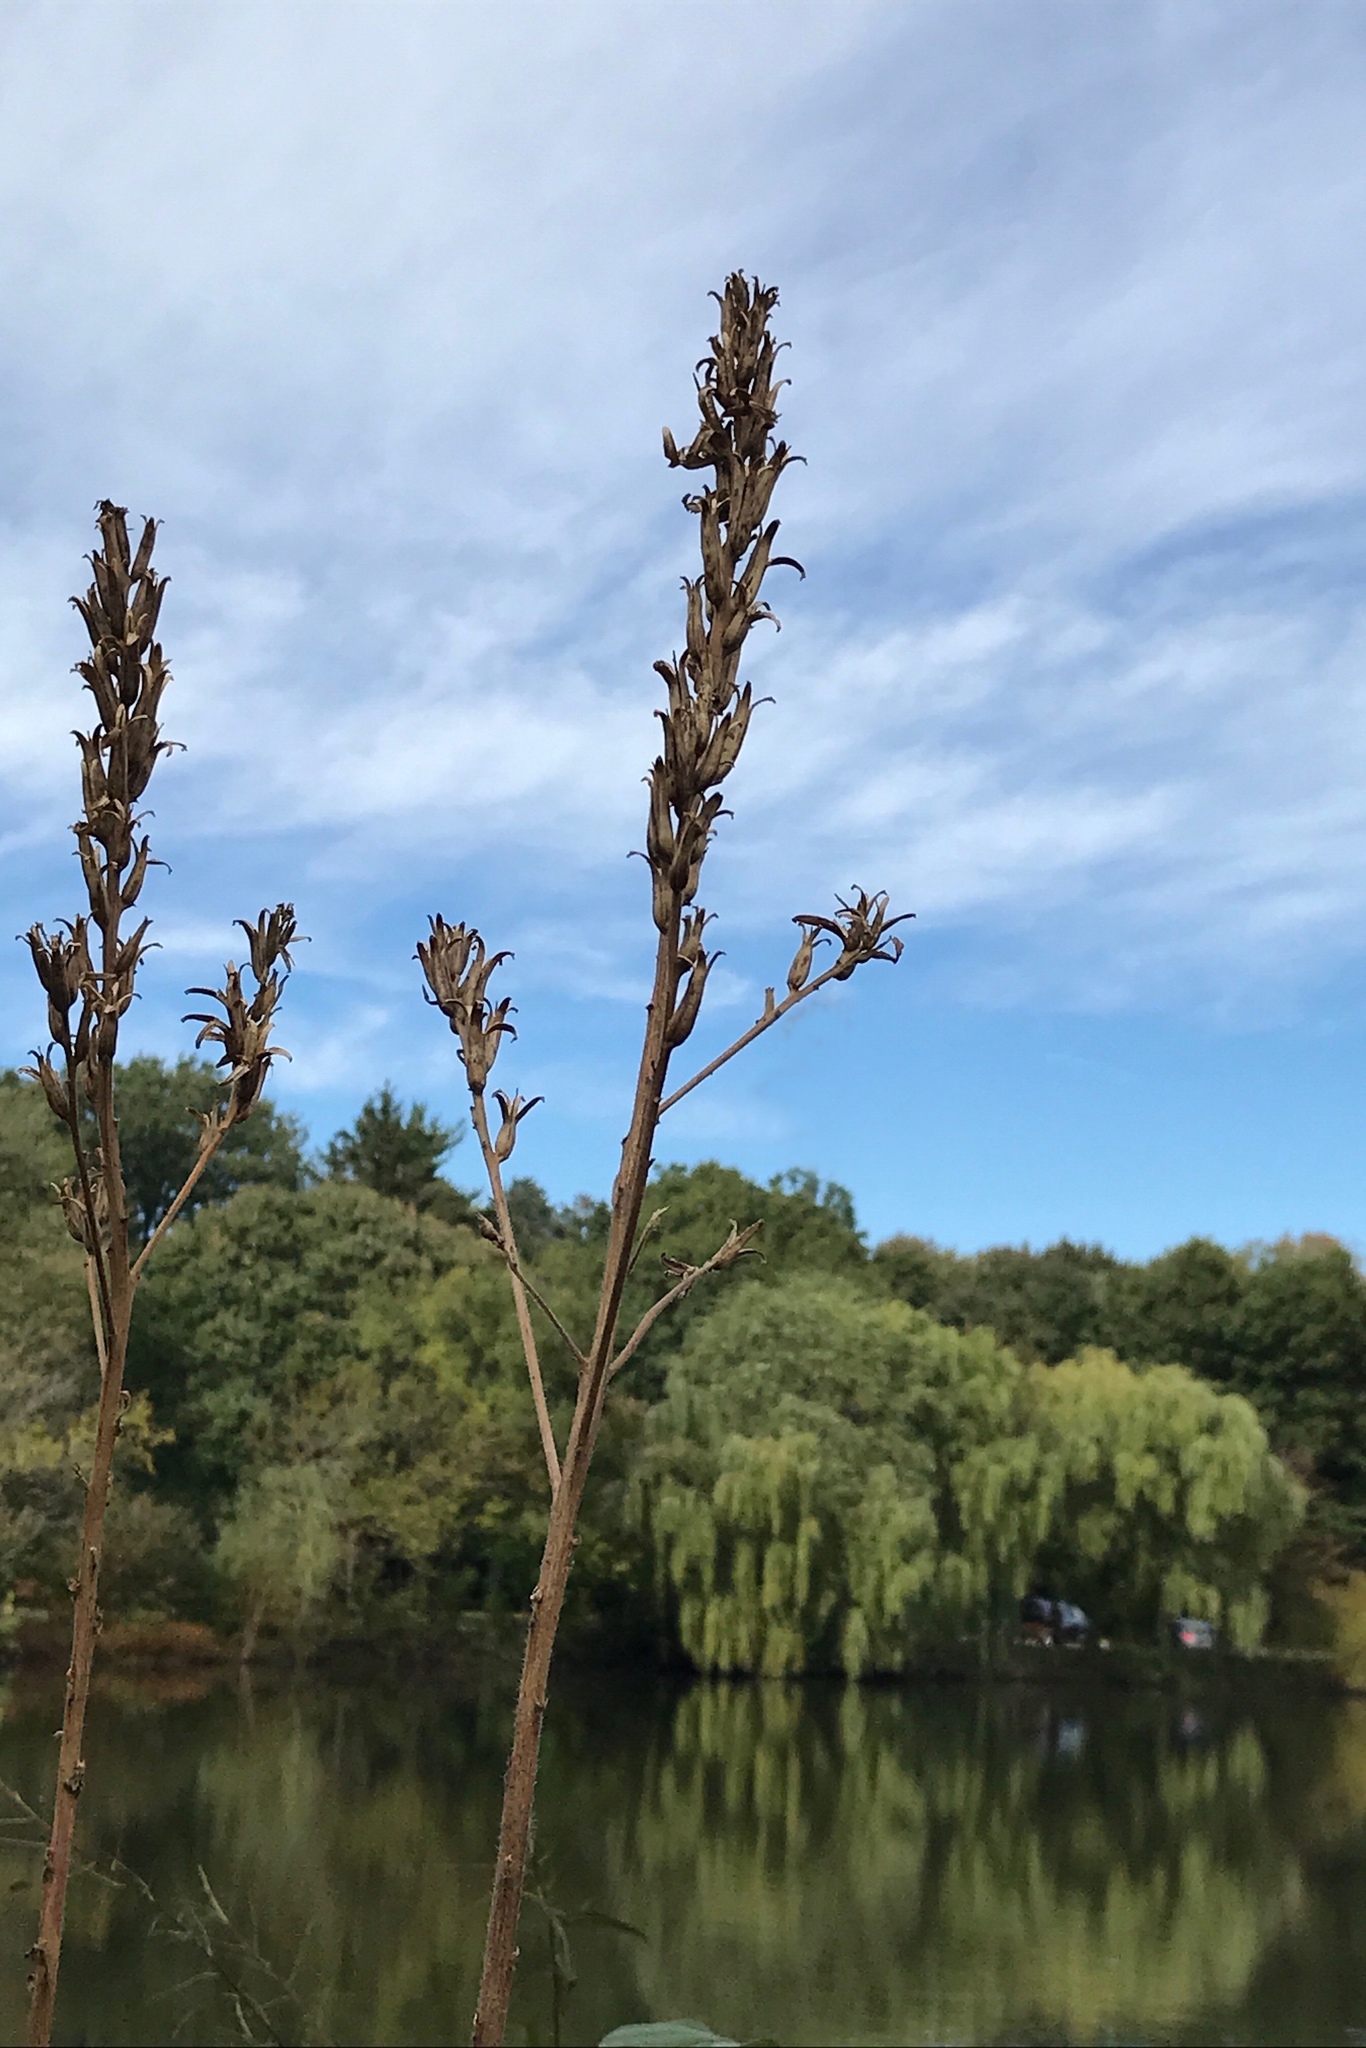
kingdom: Plantae
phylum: Tracheophyta
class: Magnoliopsida
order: Myrtales
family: Onagraceae
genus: Oenothera
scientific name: Oenothera biennis
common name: Common evening-primrose
